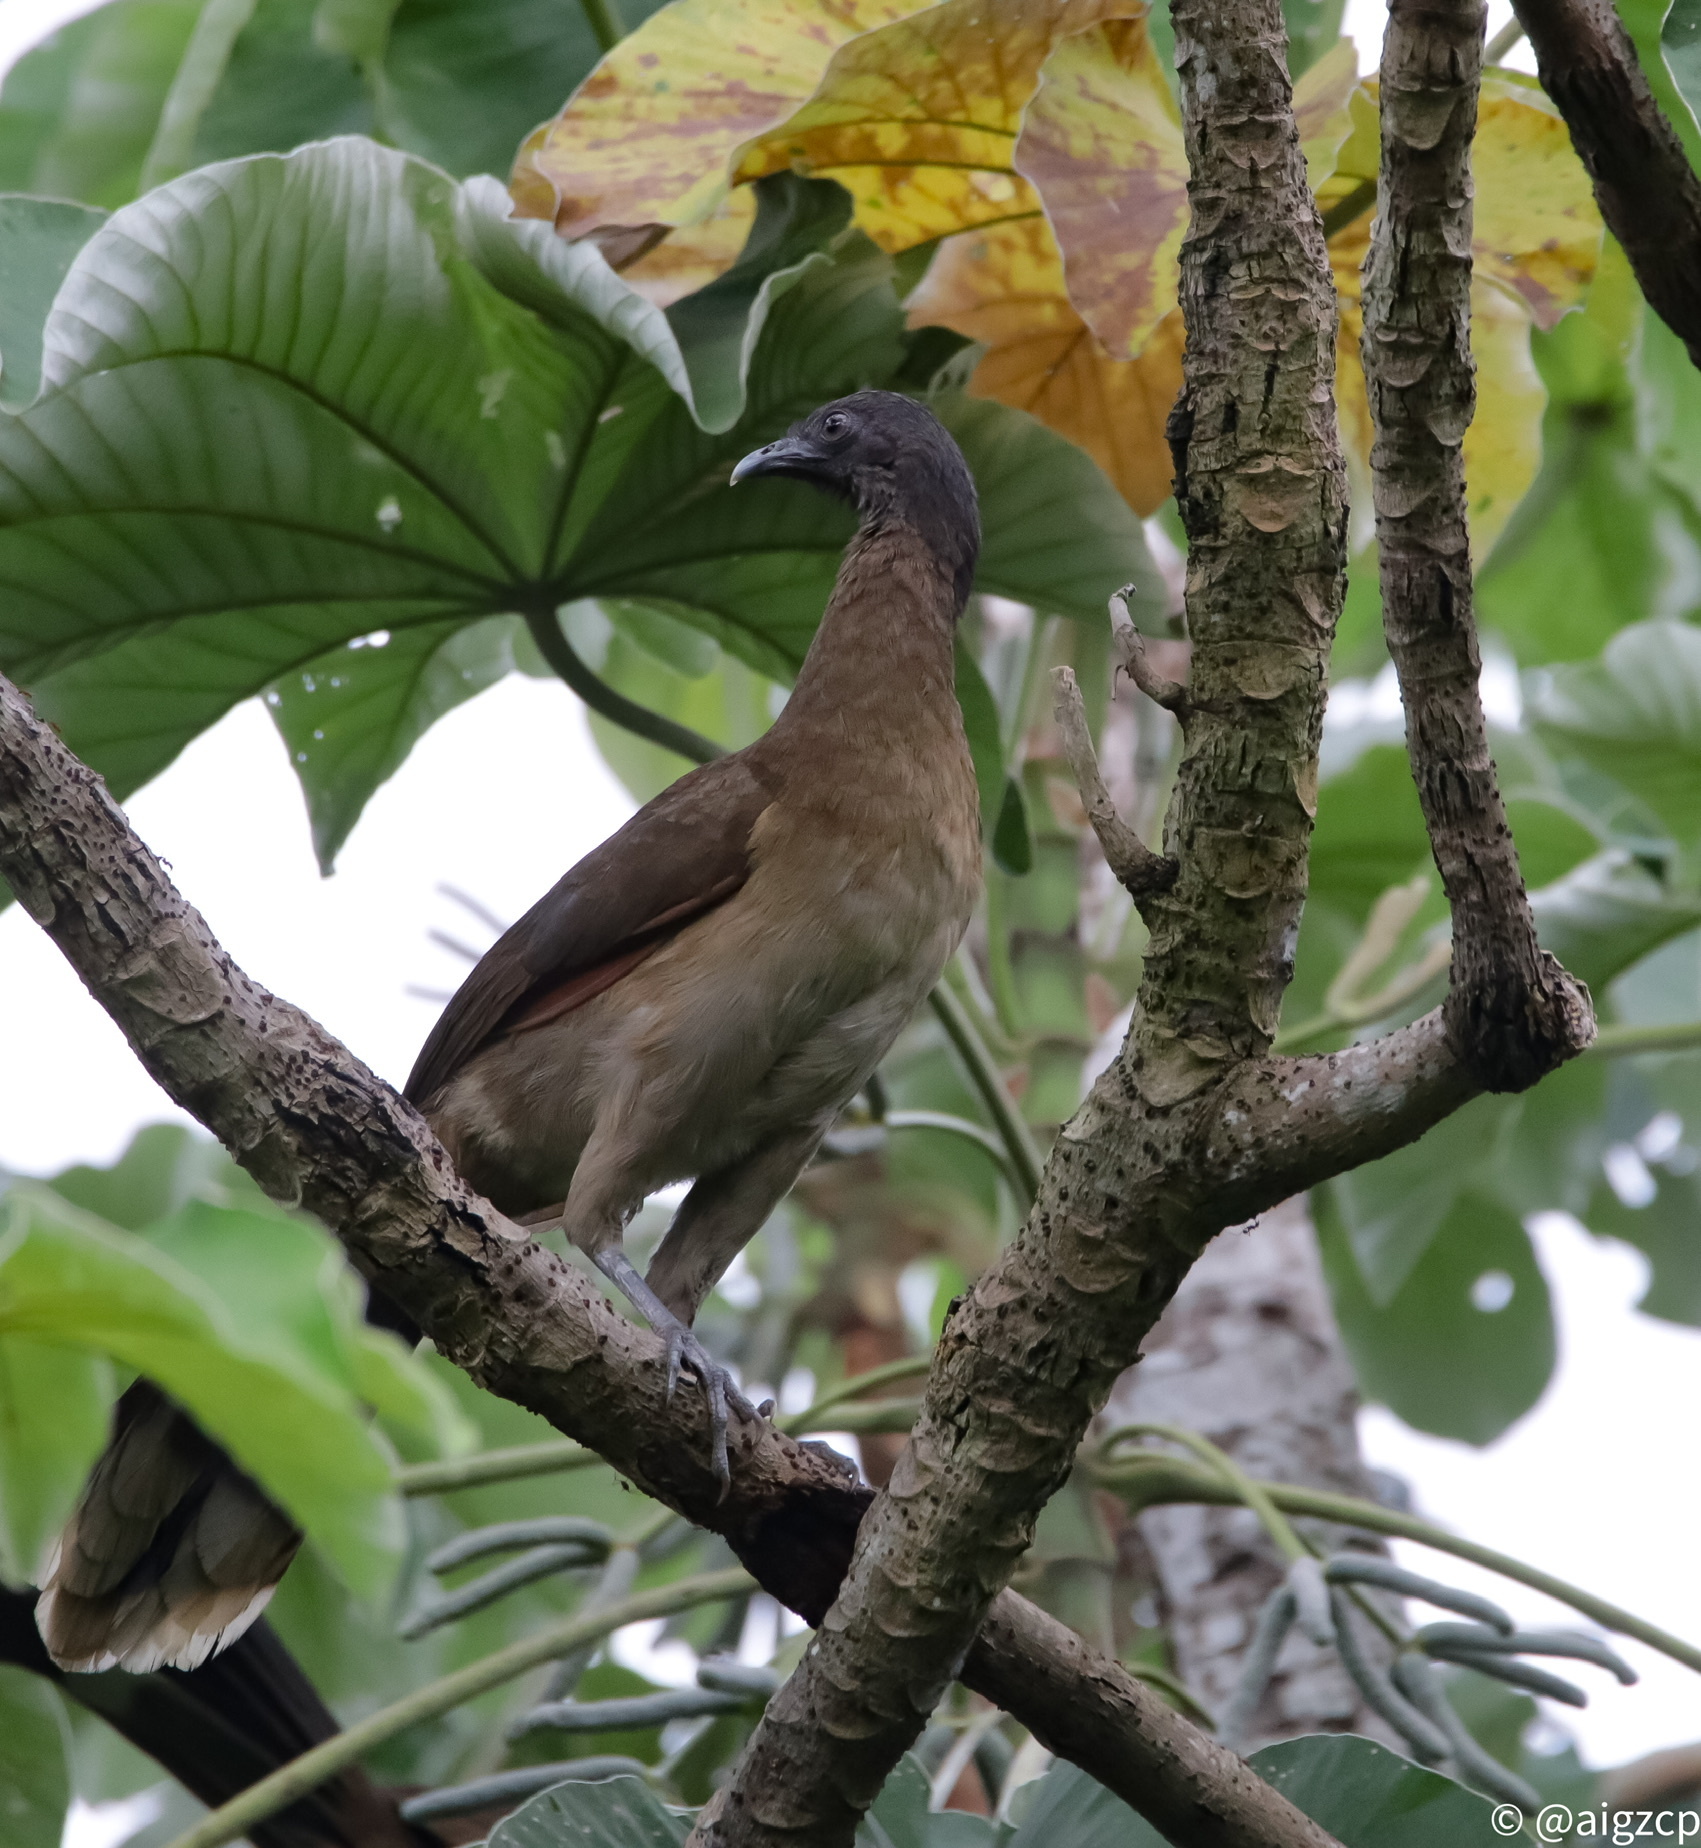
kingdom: Animalia
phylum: Chordata
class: Aves
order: Galliformes
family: Cracidae
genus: Ortalis
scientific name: Ortalis cinereiceps
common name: Grey-headed chachalaca
